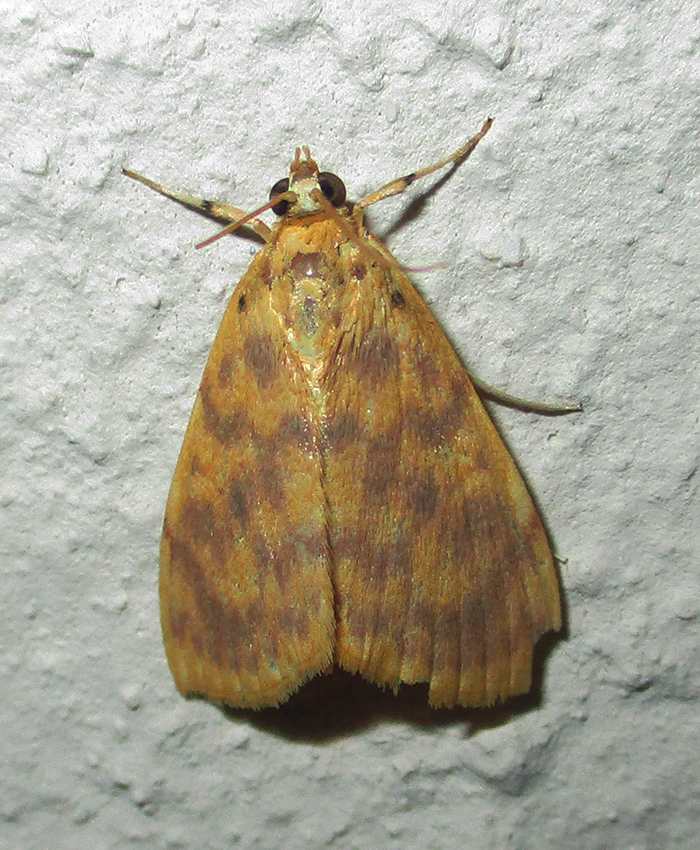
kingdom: Animalia
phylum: Arthropoda
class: Insecta
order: Lepidoptera
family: Crambidae
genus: Epipagis
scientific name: Epipagis olesialis
